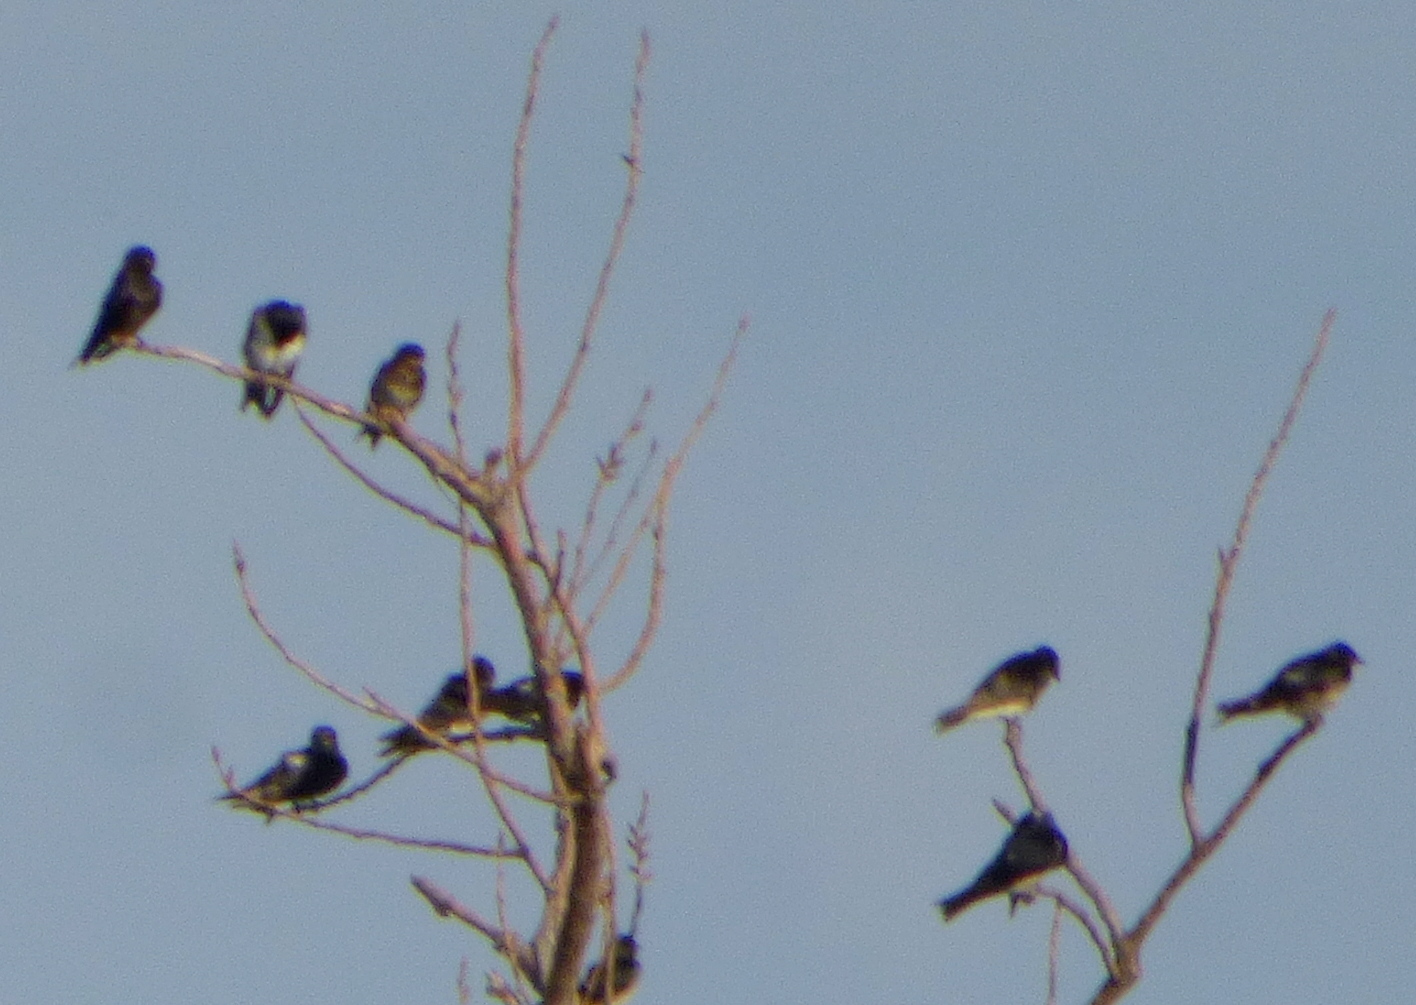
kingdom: Animalia
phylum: Chordata
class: Aves
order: Passeriformes
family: Hirundinidae
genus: Progne
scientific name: Progne elegans
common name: Southern martin
